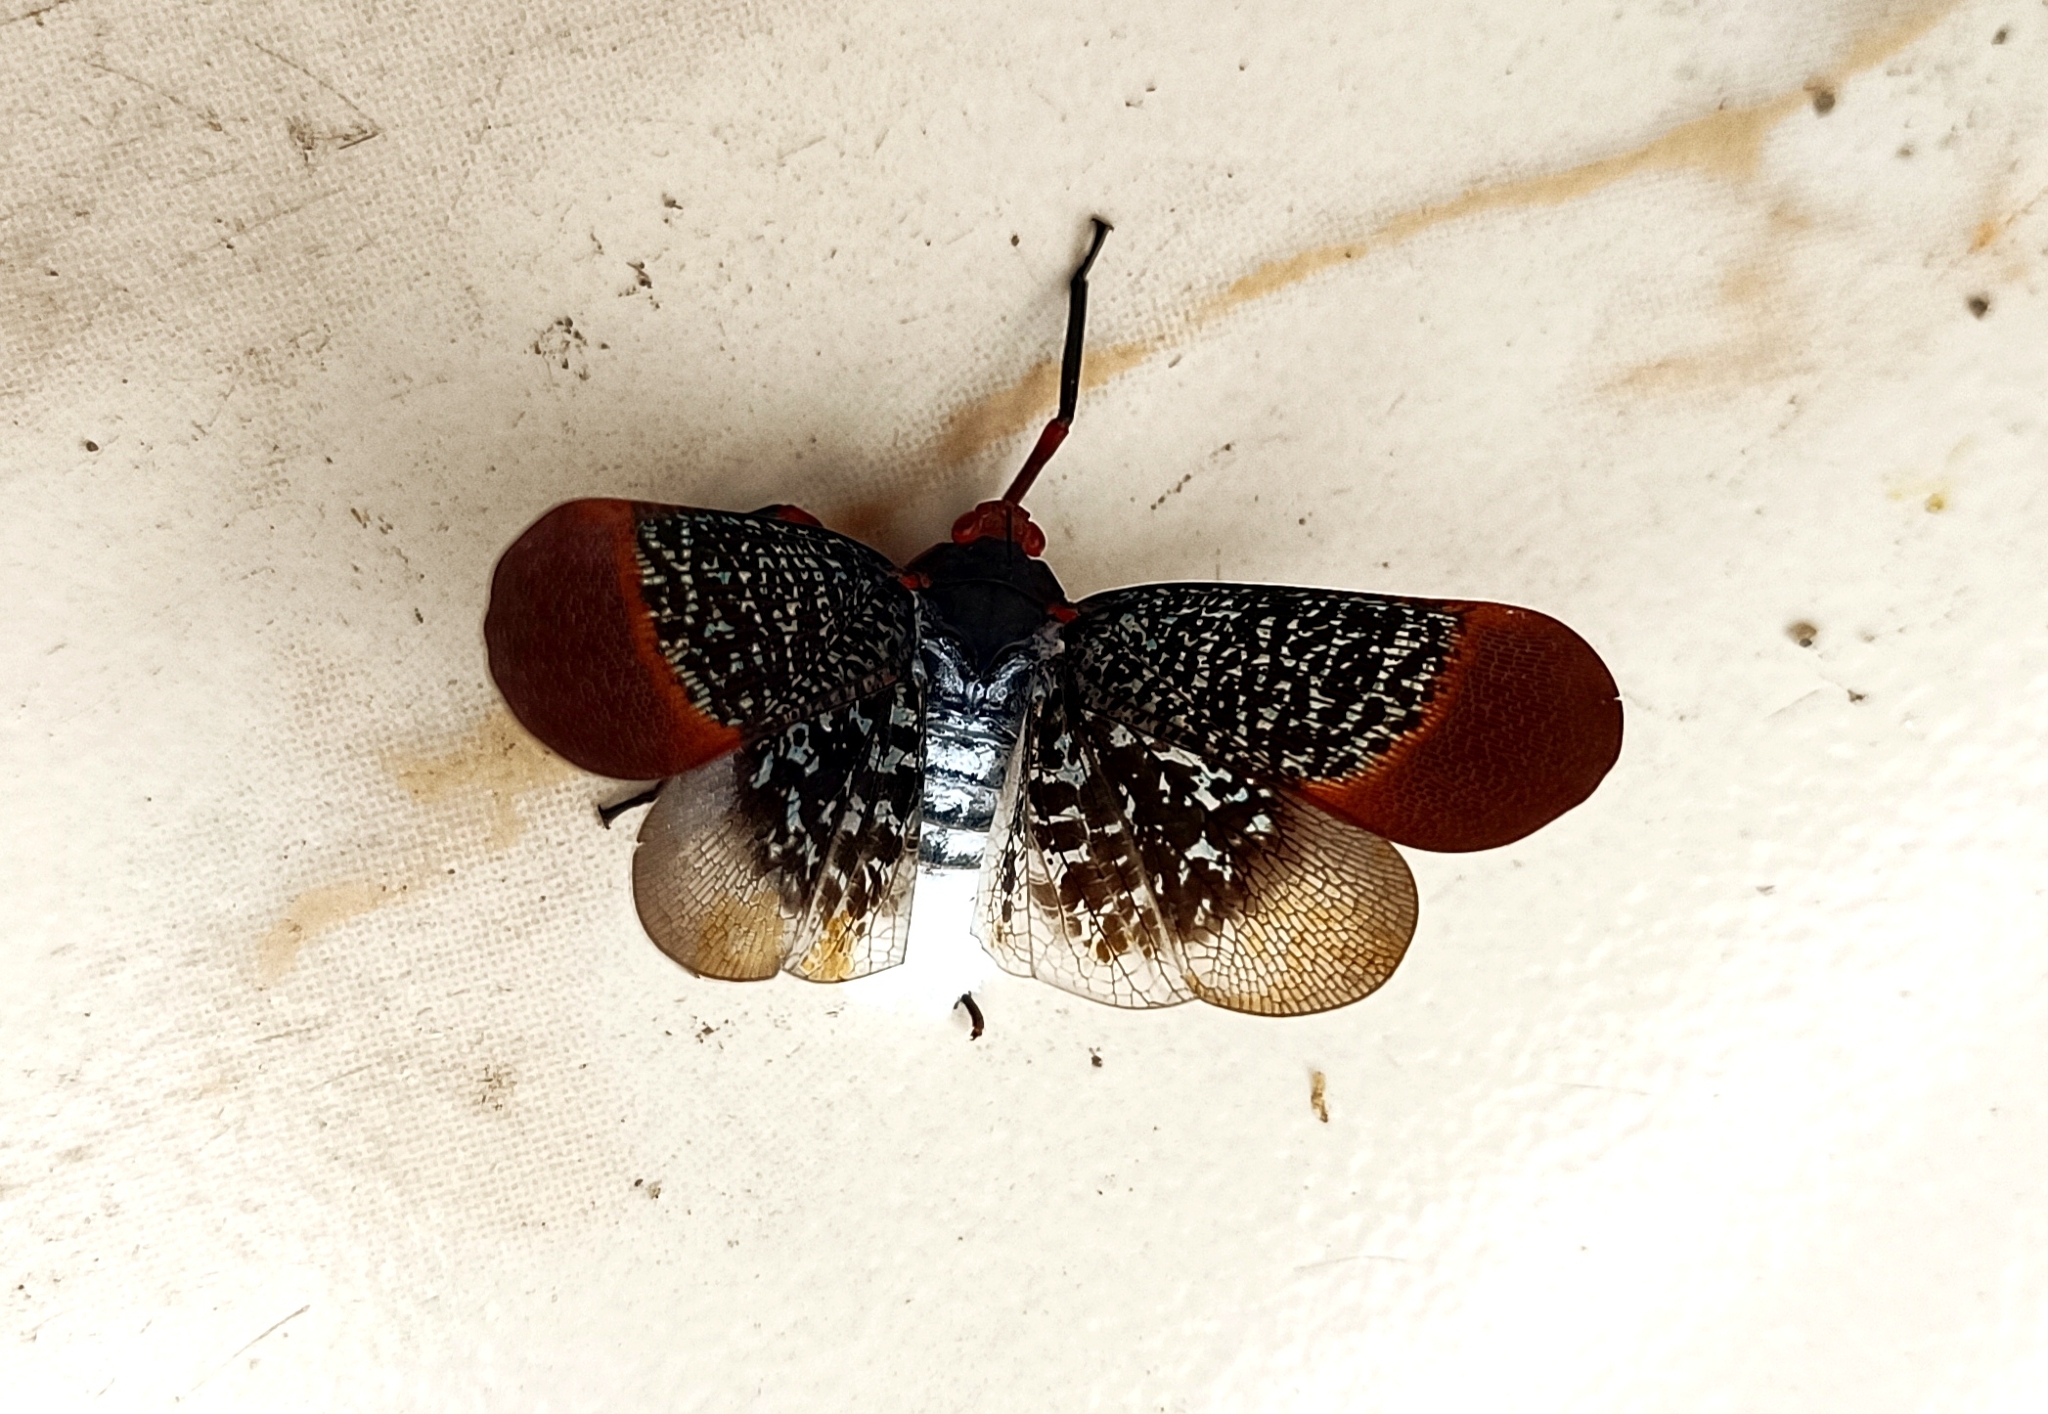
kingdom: Animalia
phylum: Arthropoda
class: Insecta
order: Hemiptera
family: Fulgoridae
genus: Kalidasa
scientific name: Kalidasa lanata
